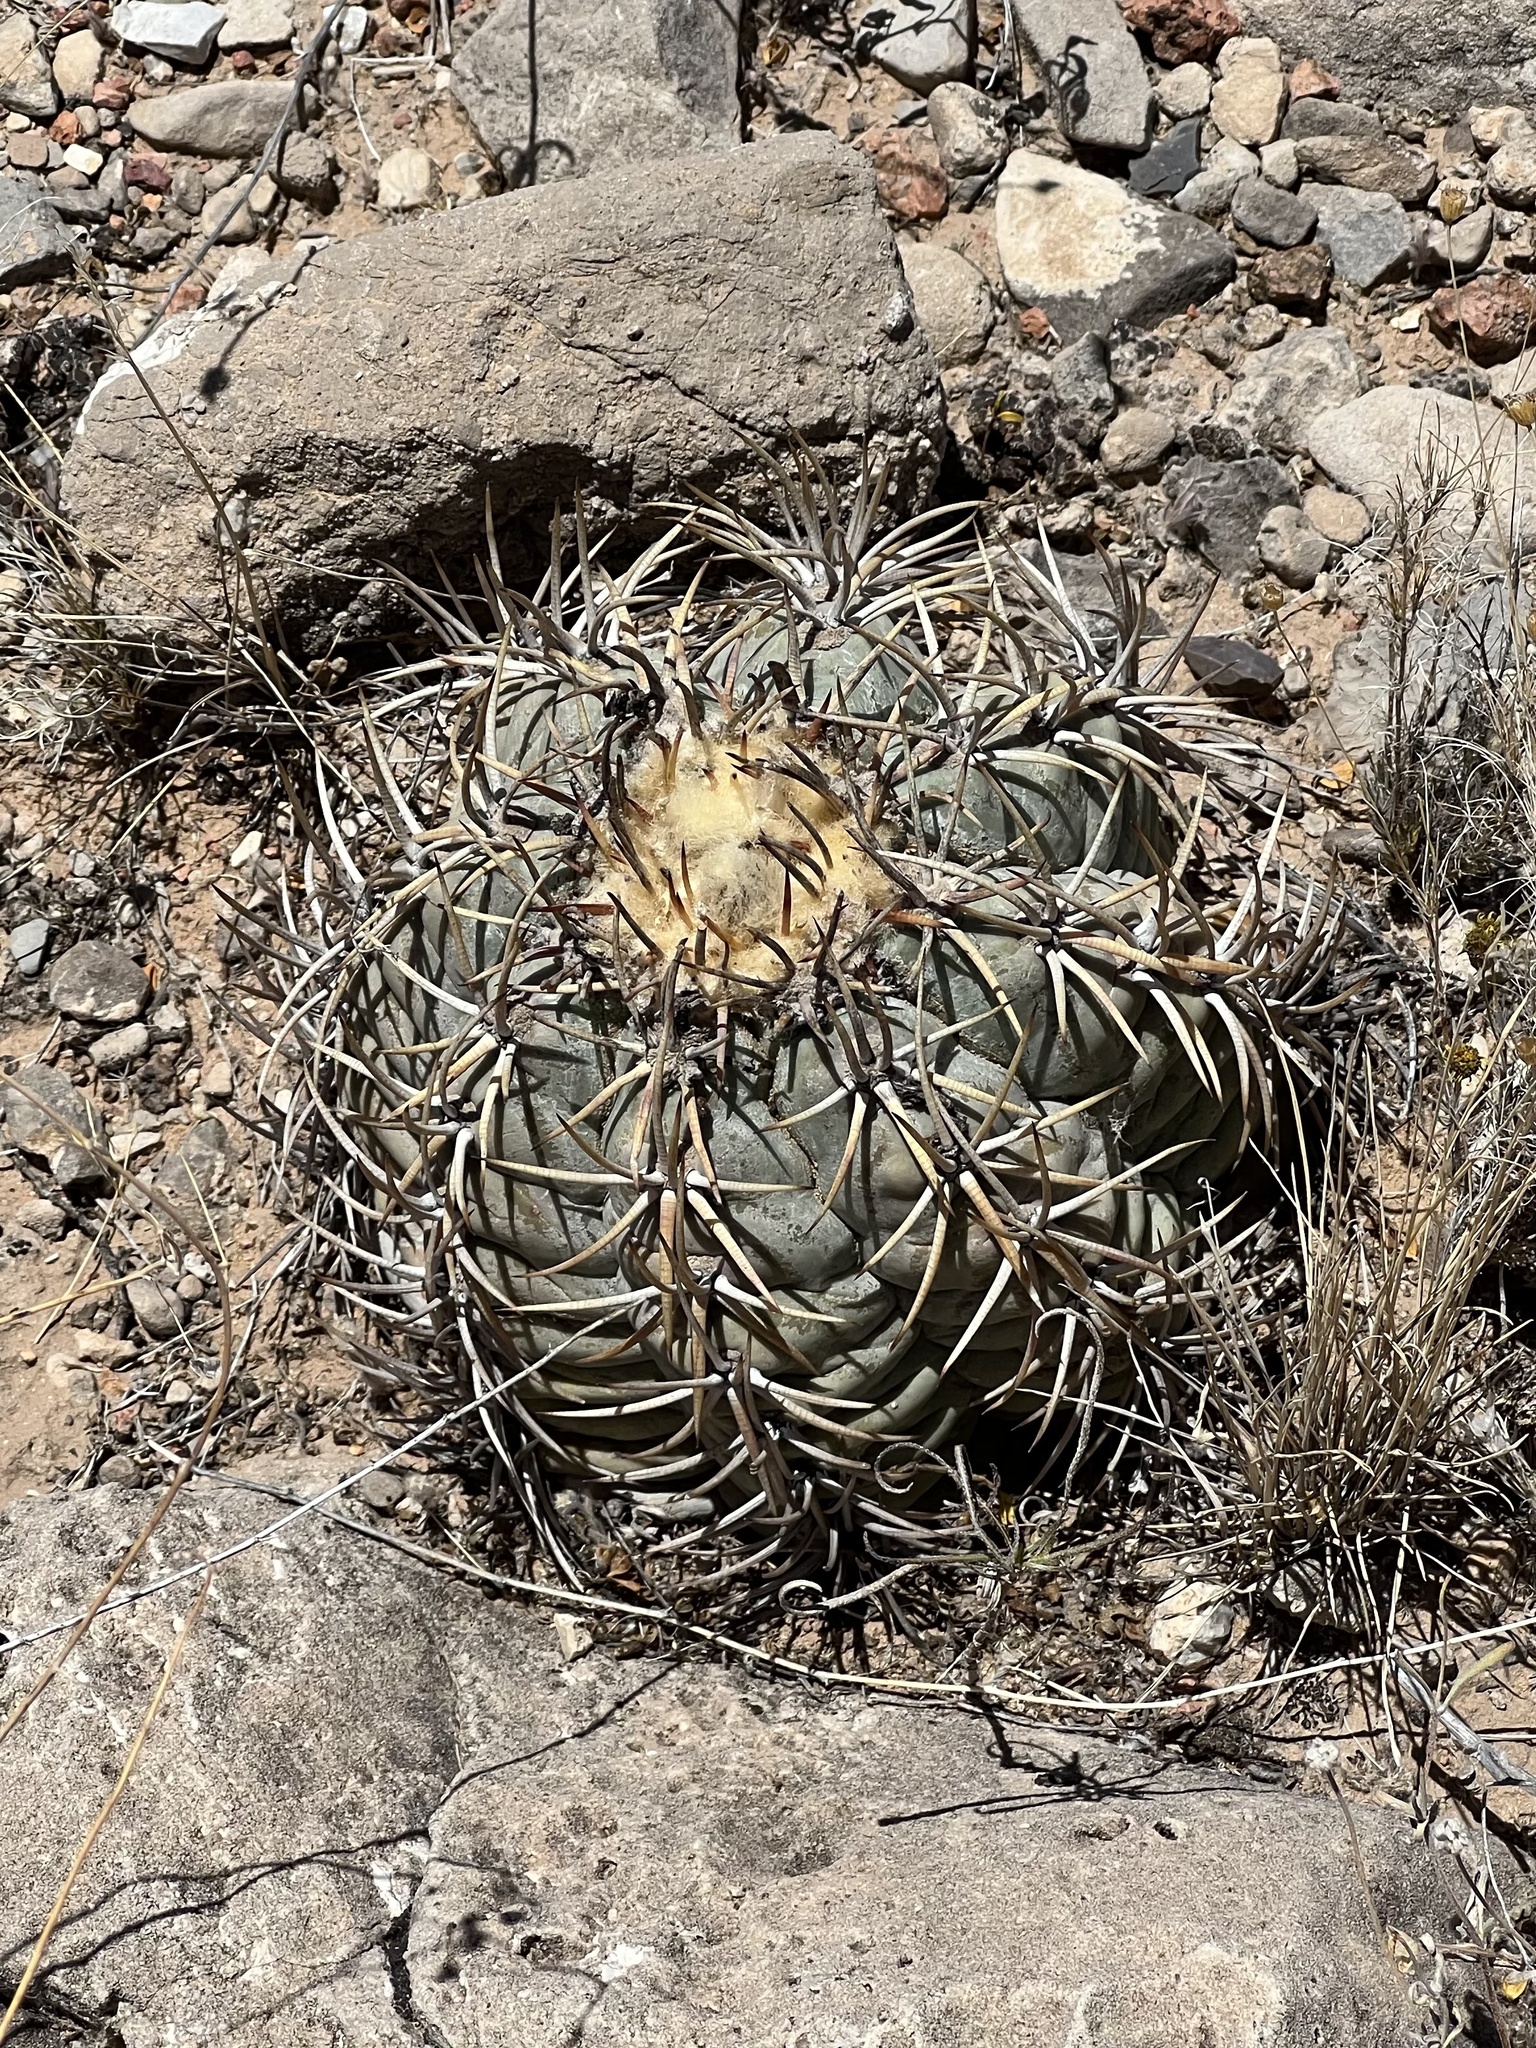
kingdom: Plantae
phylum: Tracheophyta
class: Magnoliopsida
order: Caryophyllales
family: Cactaceae
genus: Echinocactus
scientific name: Echinocactus horizonthalonius
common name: Devilshead
